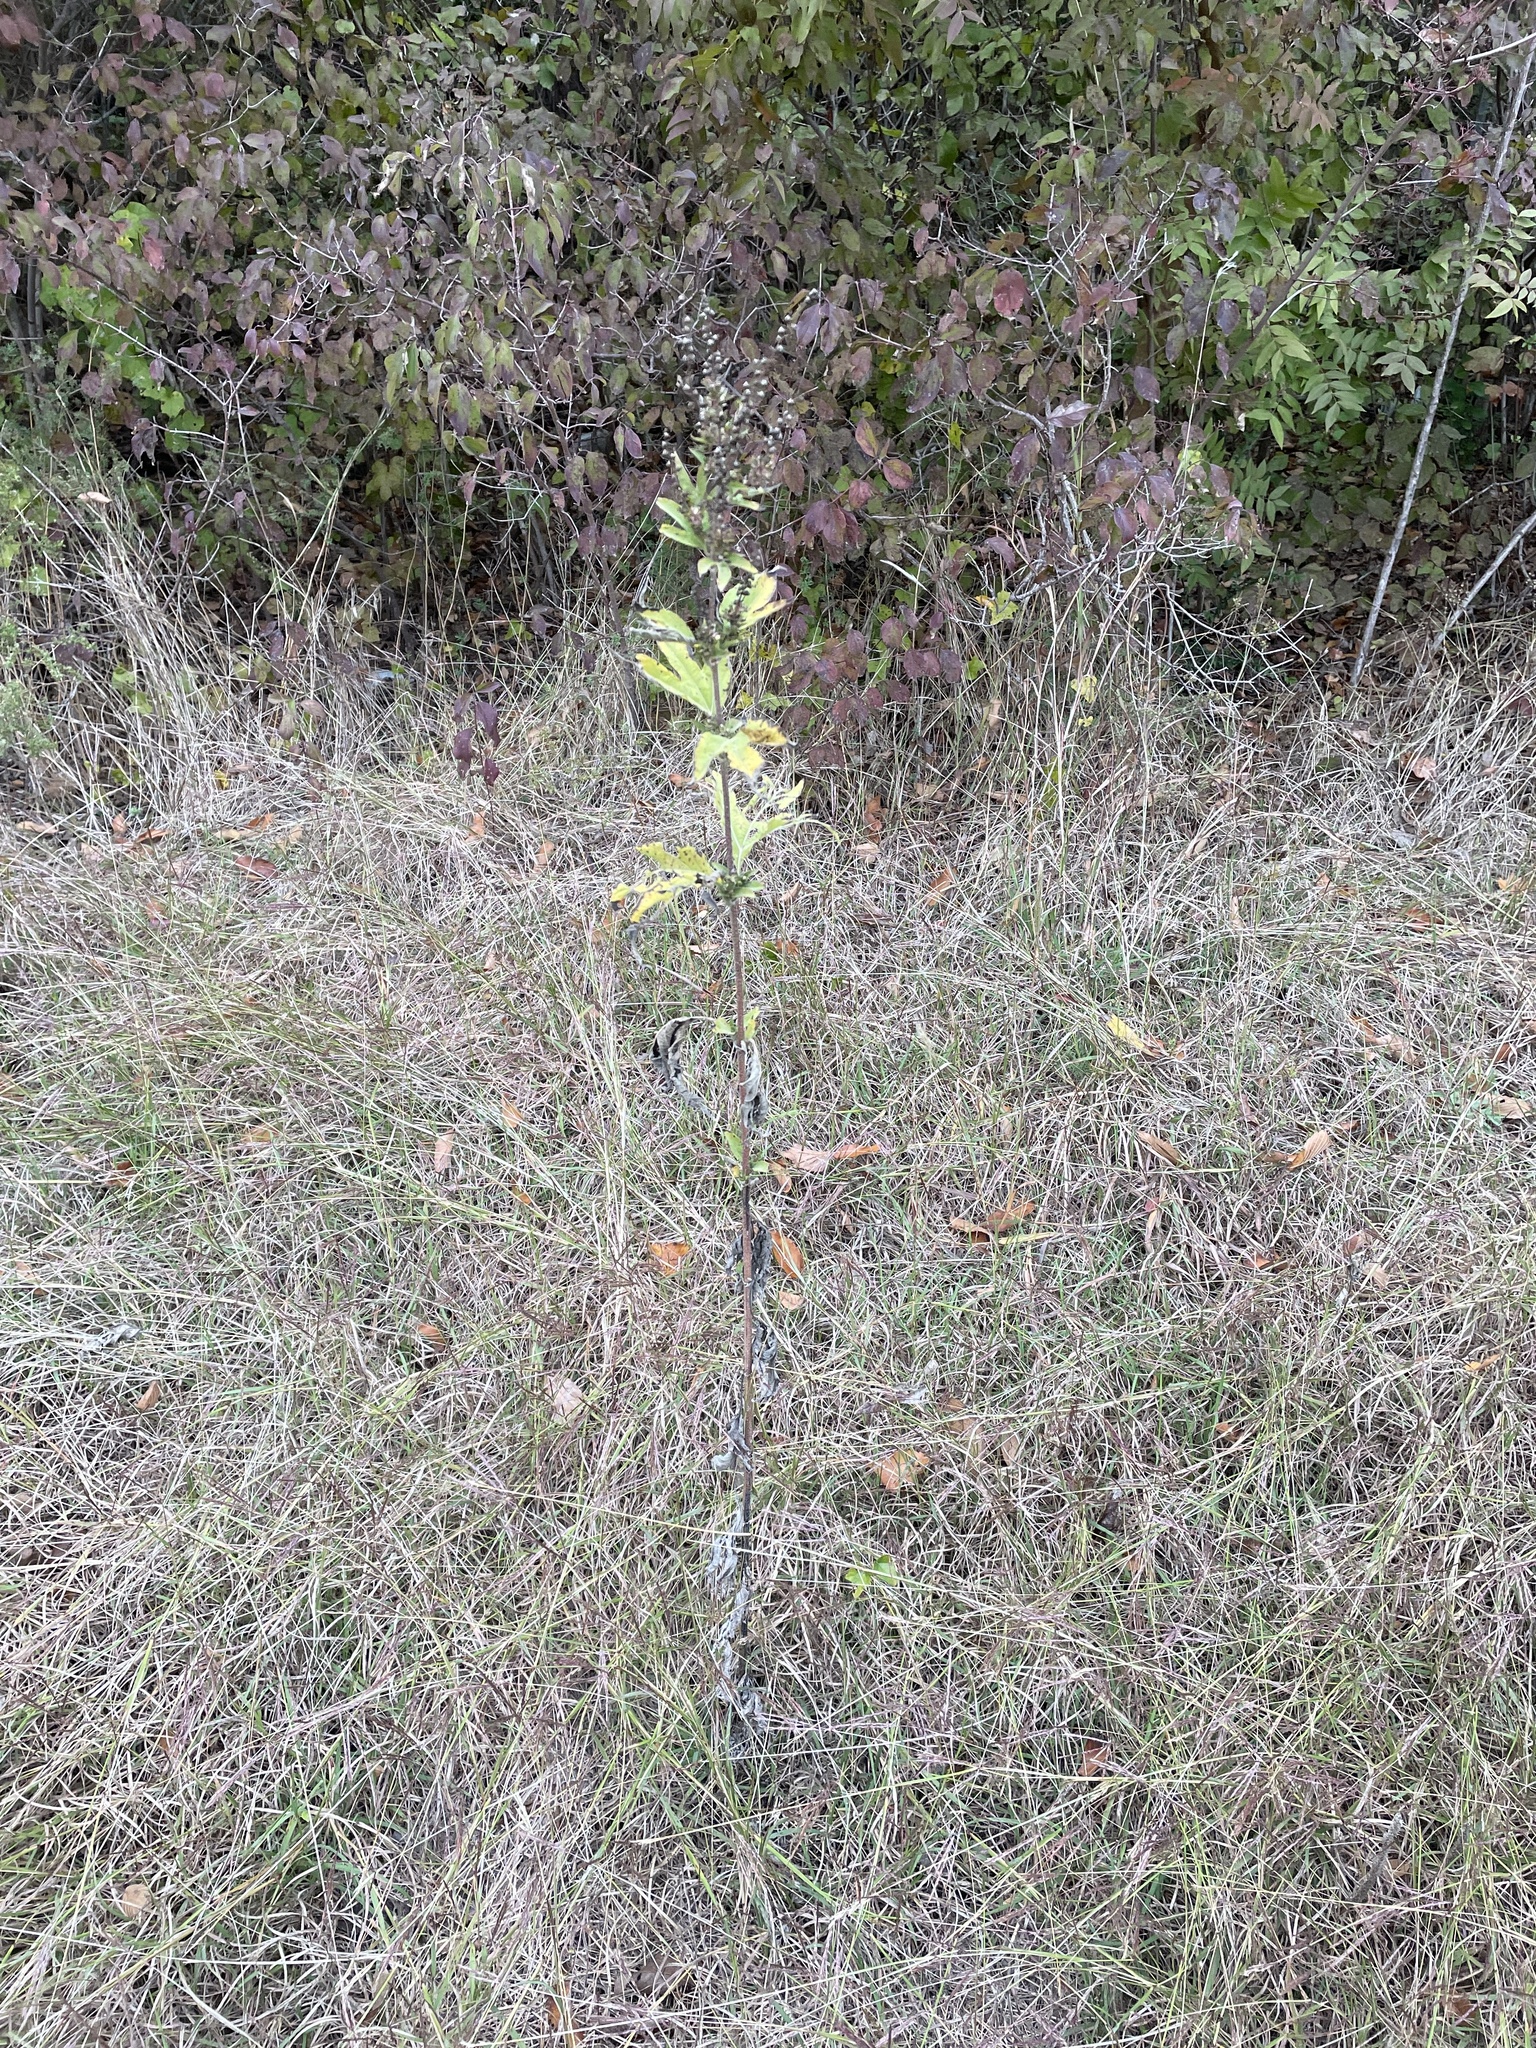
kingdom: Plantae
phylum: Tracheophyta
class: Magnoliopsida
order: Asterales
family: Asteraceae
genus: Ambrosia
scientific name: Ambrosia trifida
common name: Giant ragweed
